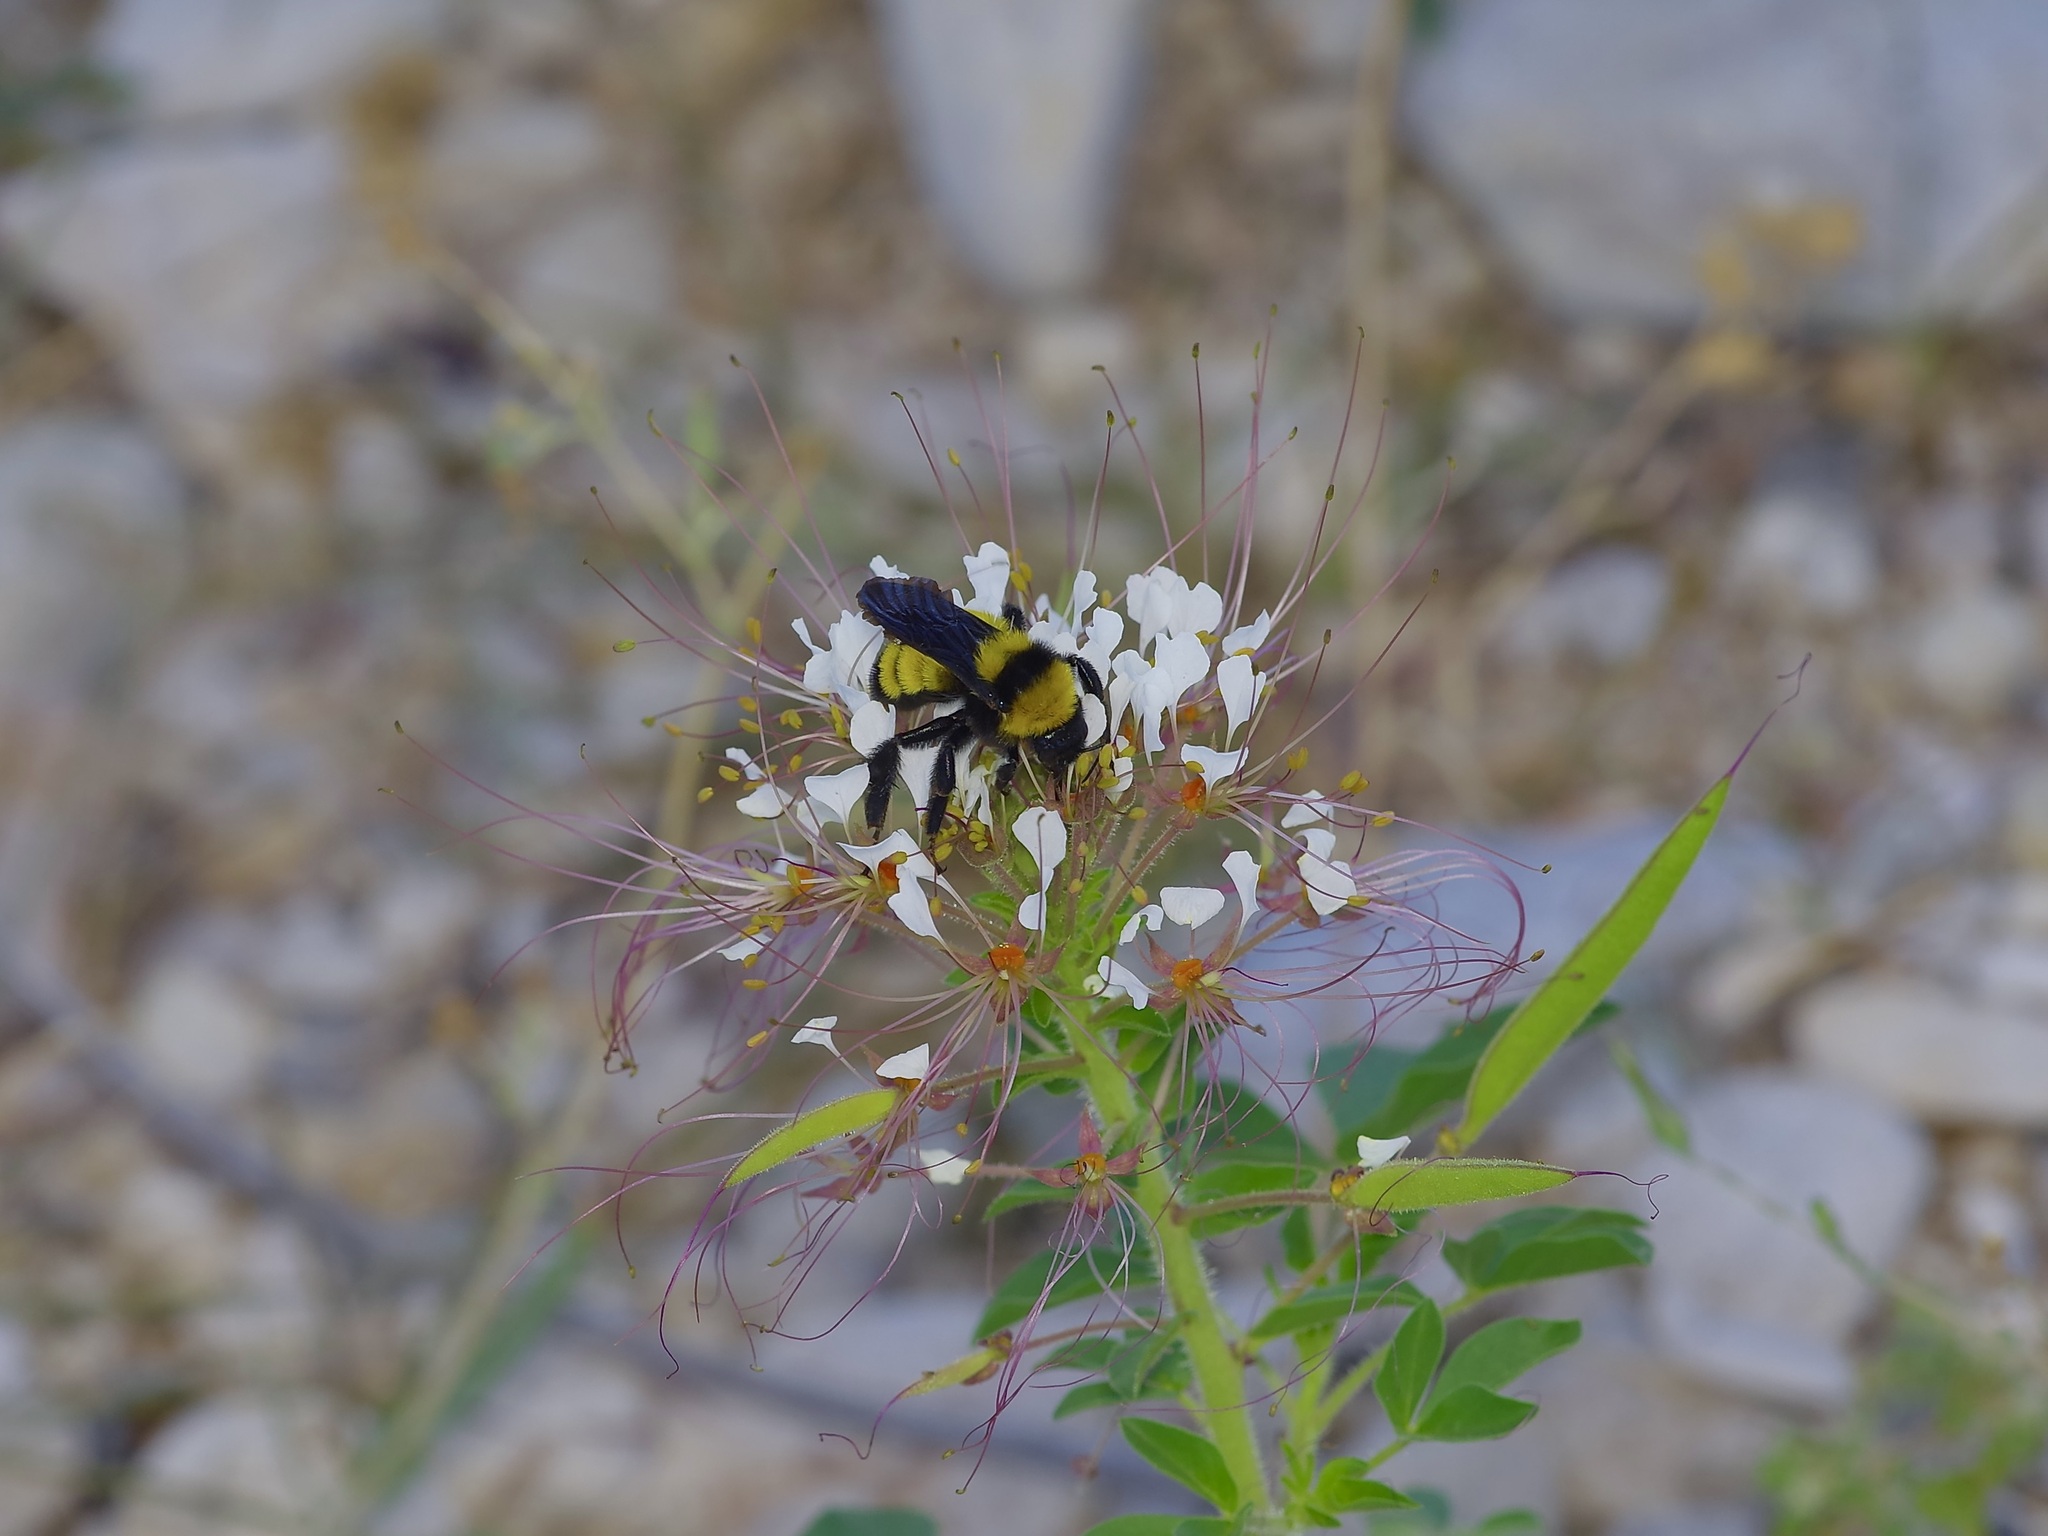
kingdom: Animalia
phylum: Arthropoda
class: Insecta
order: Hymenoptera
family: Apidae
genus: Bombus
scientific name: Bombus sonorus
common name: Sonoran bumble bee
